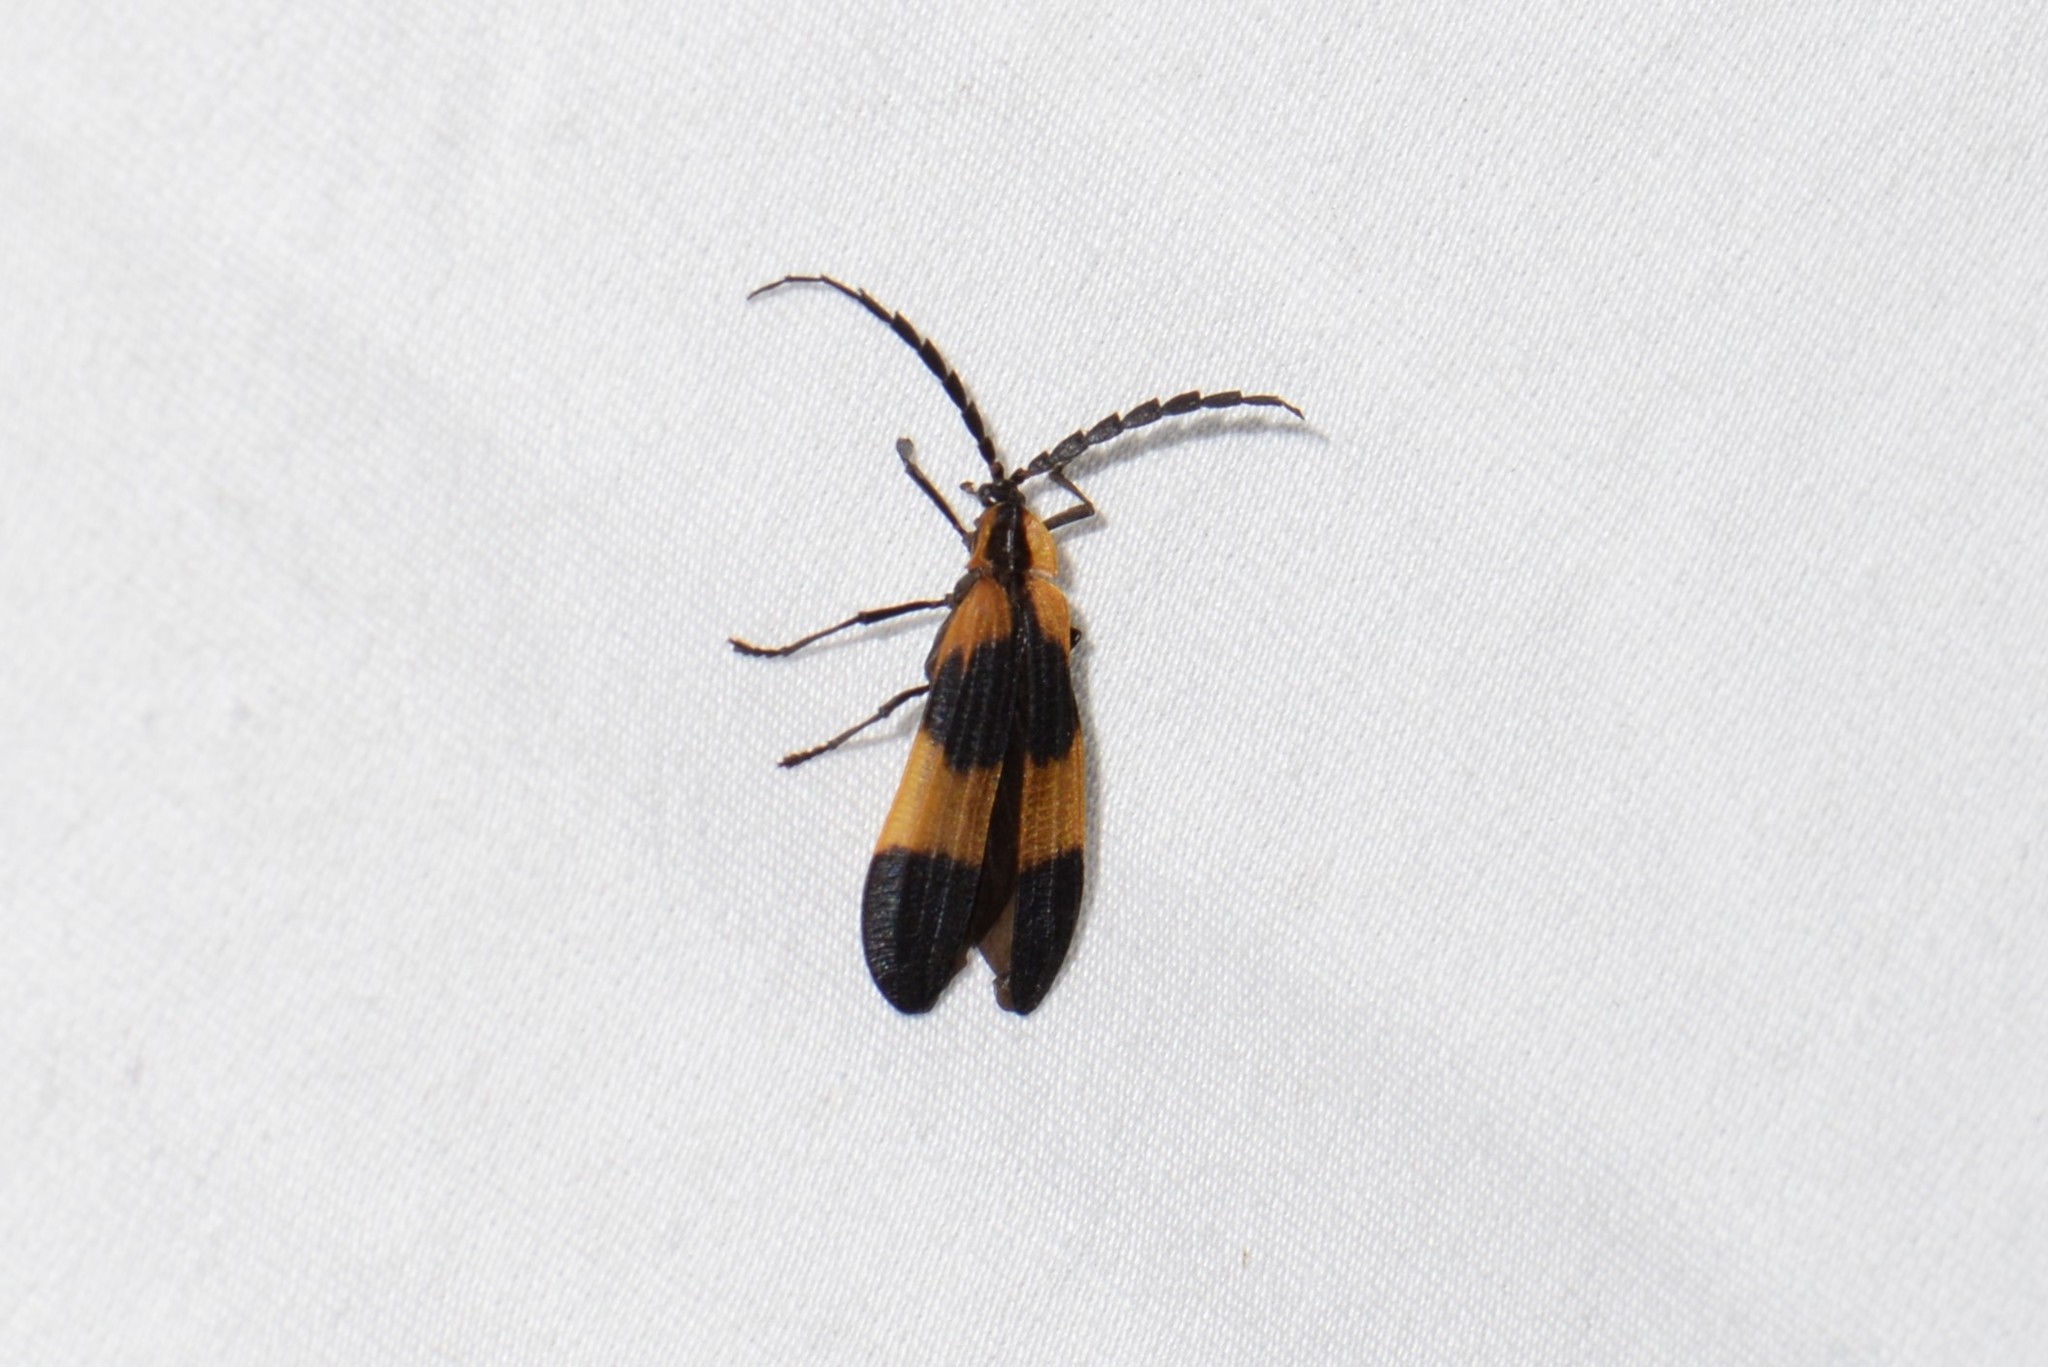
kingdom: Animalia
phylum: Arthropoda
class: Insecta
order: Coleoptera
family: Lycidae
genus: Calopteron
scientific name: Calopteron reticulatum
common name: Banded net-winged beetle
